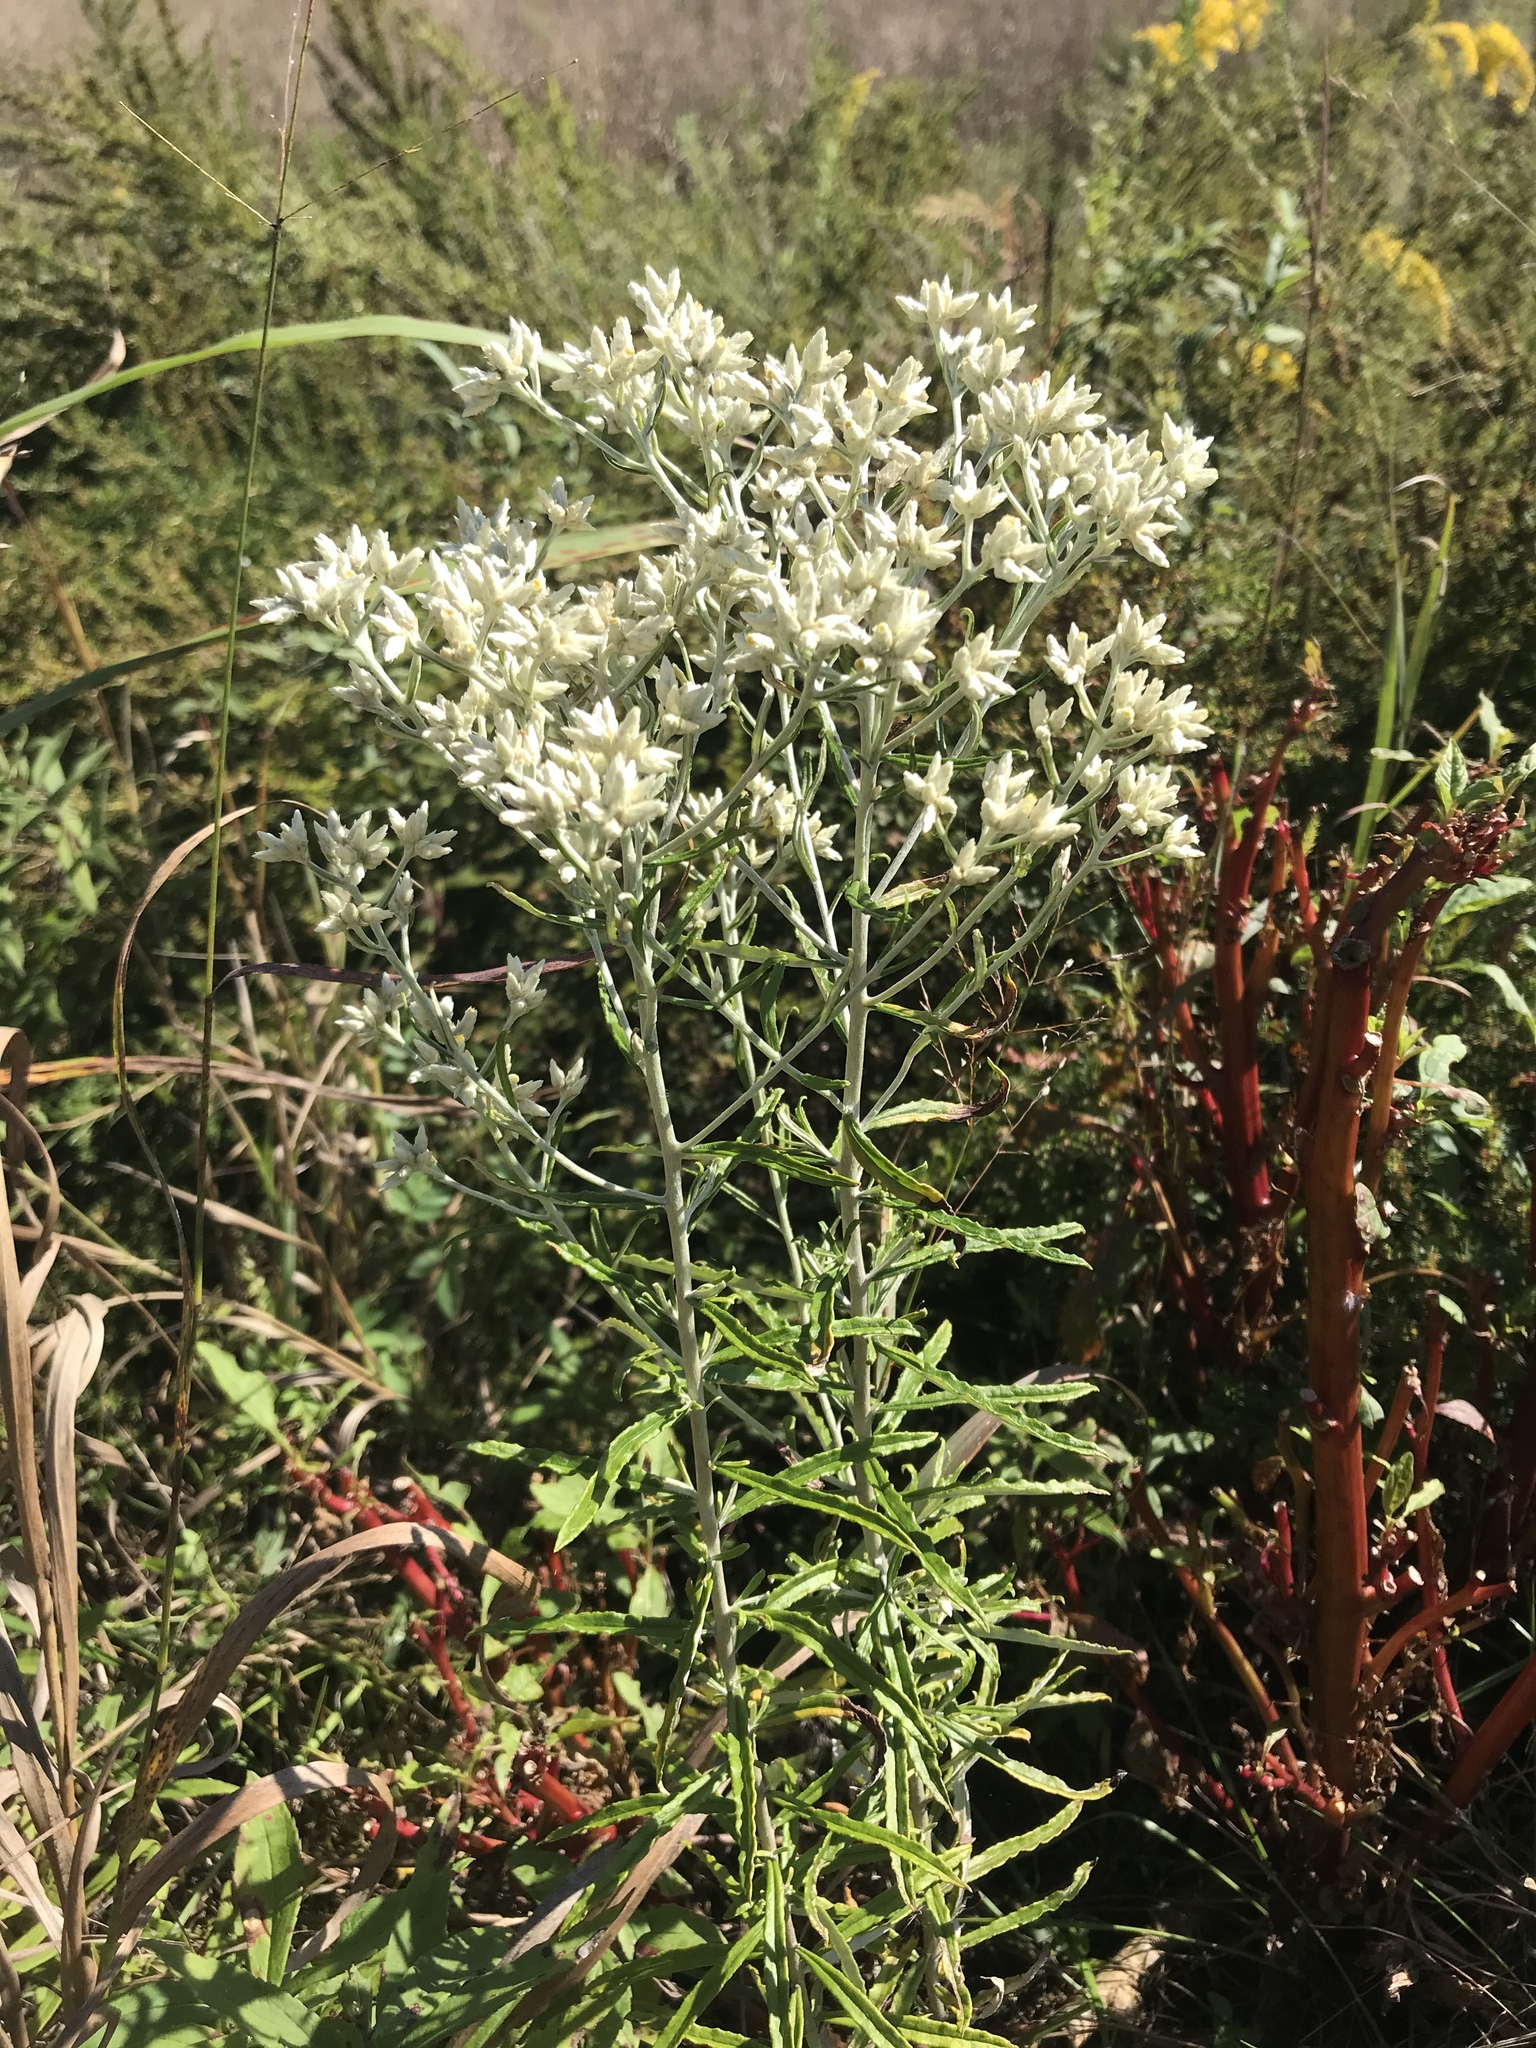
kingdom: Plantae
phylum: Tracheophyta
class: Magnoliopsida
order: Asterales
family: Asteraceae
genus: Pseudognaphalium
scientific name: Pseudognaphalium obtusifolium
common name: Eastern rabbit-tobacco
